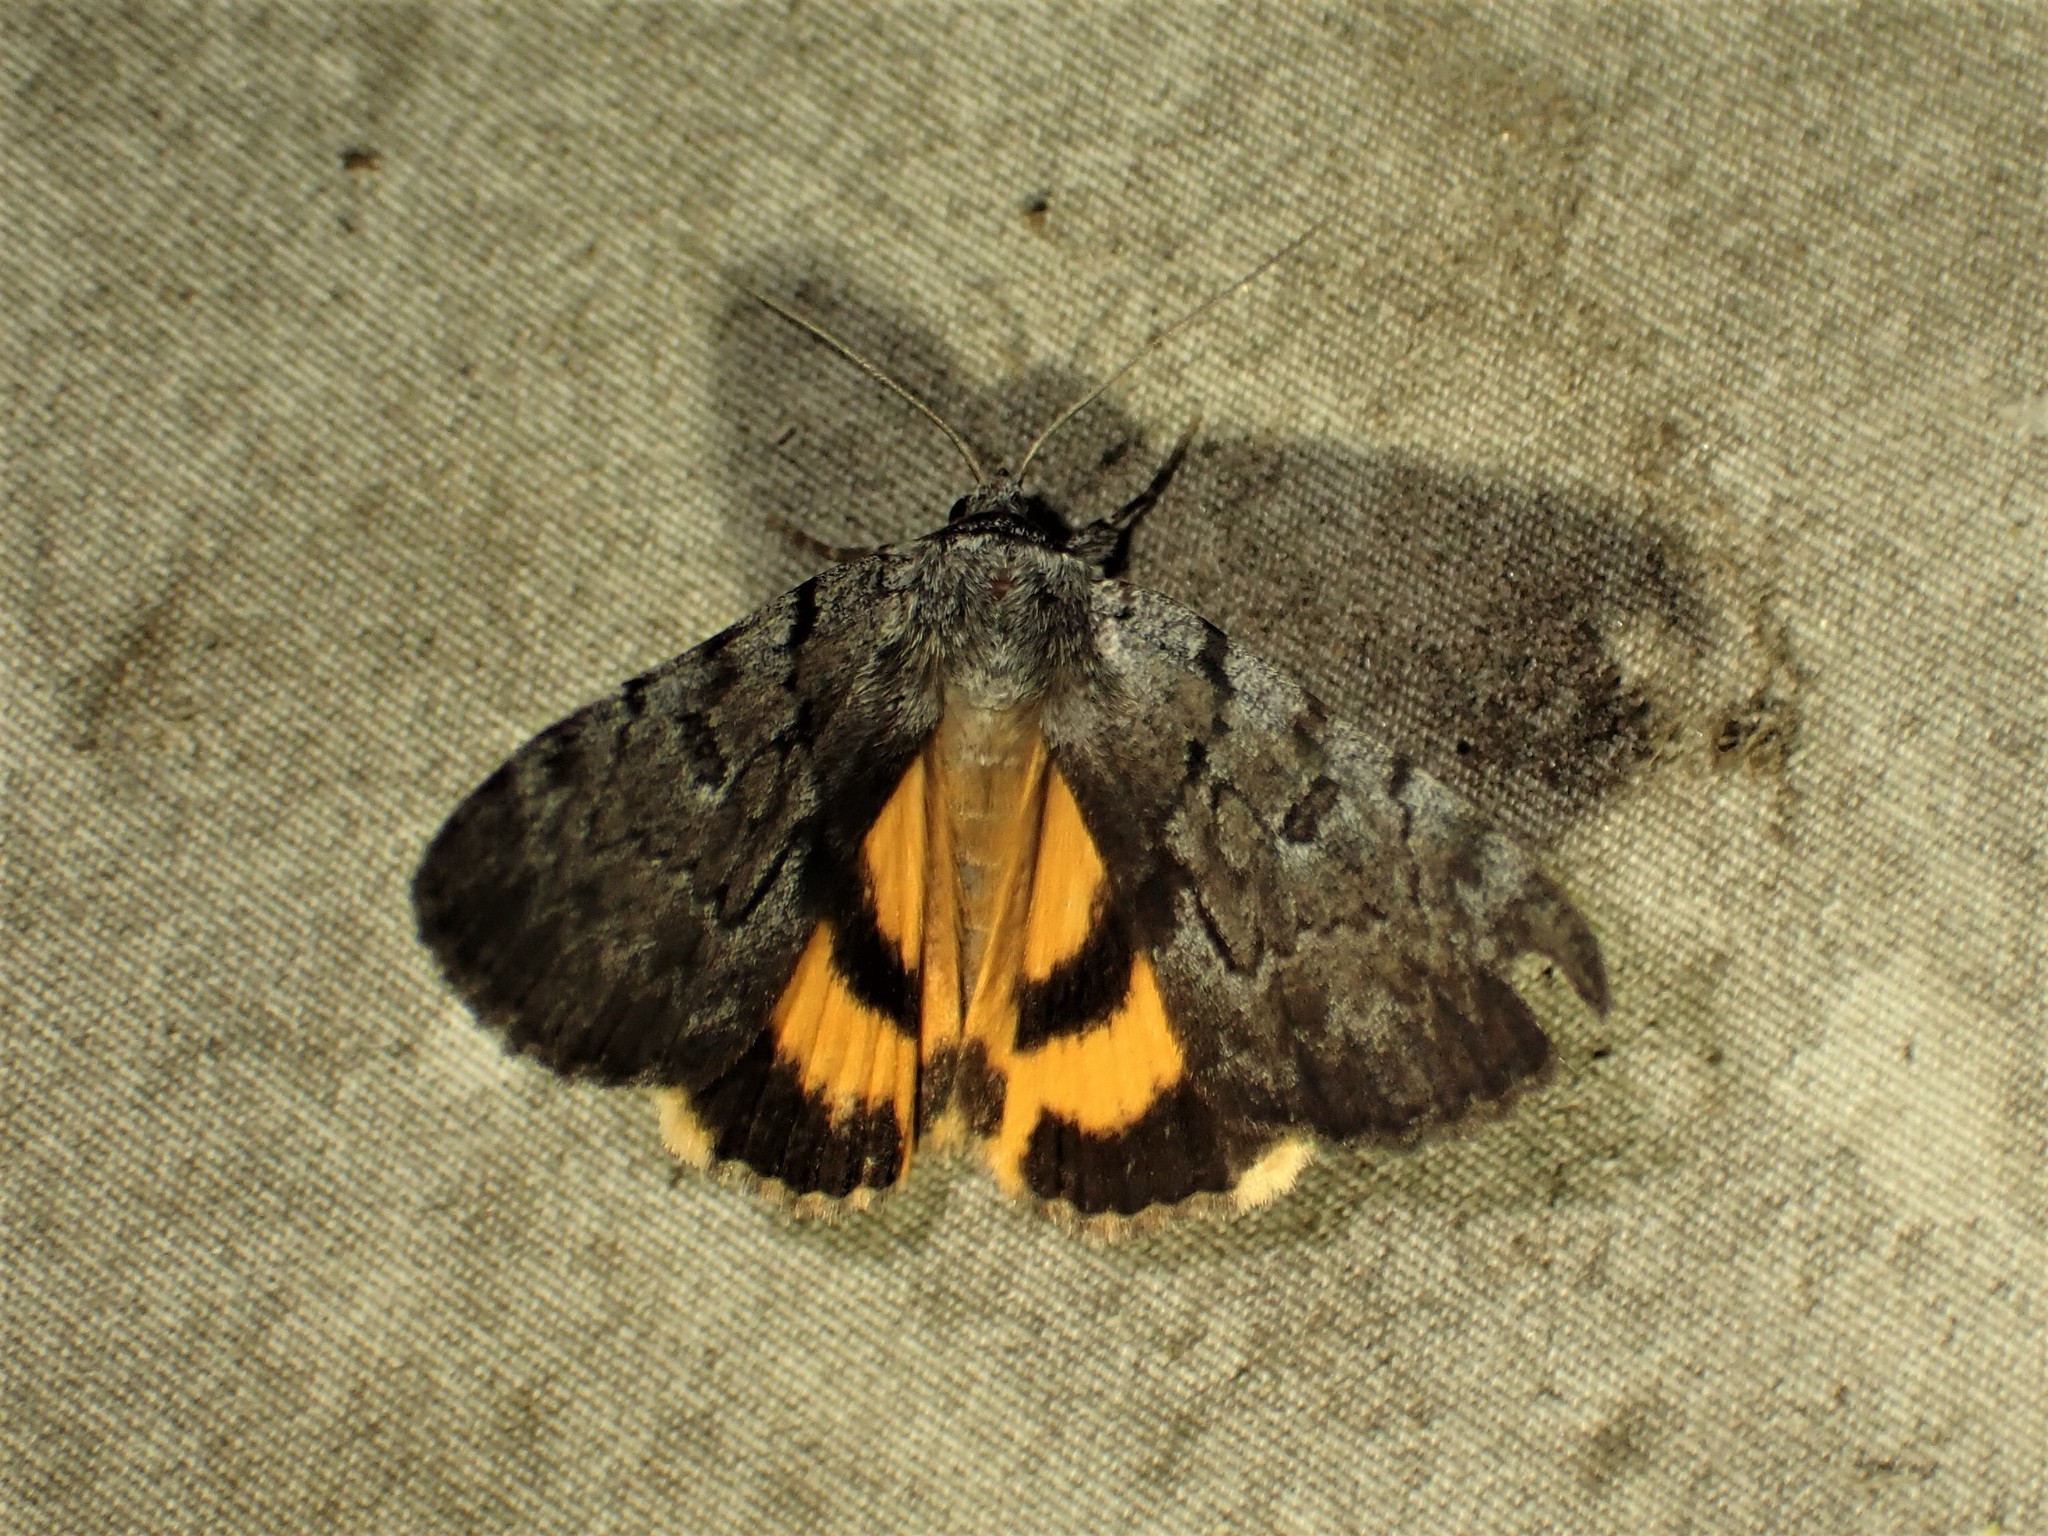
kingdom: Animalia
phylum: Arthropoda
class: Insecta
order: Lepidoptera
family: Erebidae
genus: Catocala
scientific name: Catocala sordida
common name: Sordid underwing
